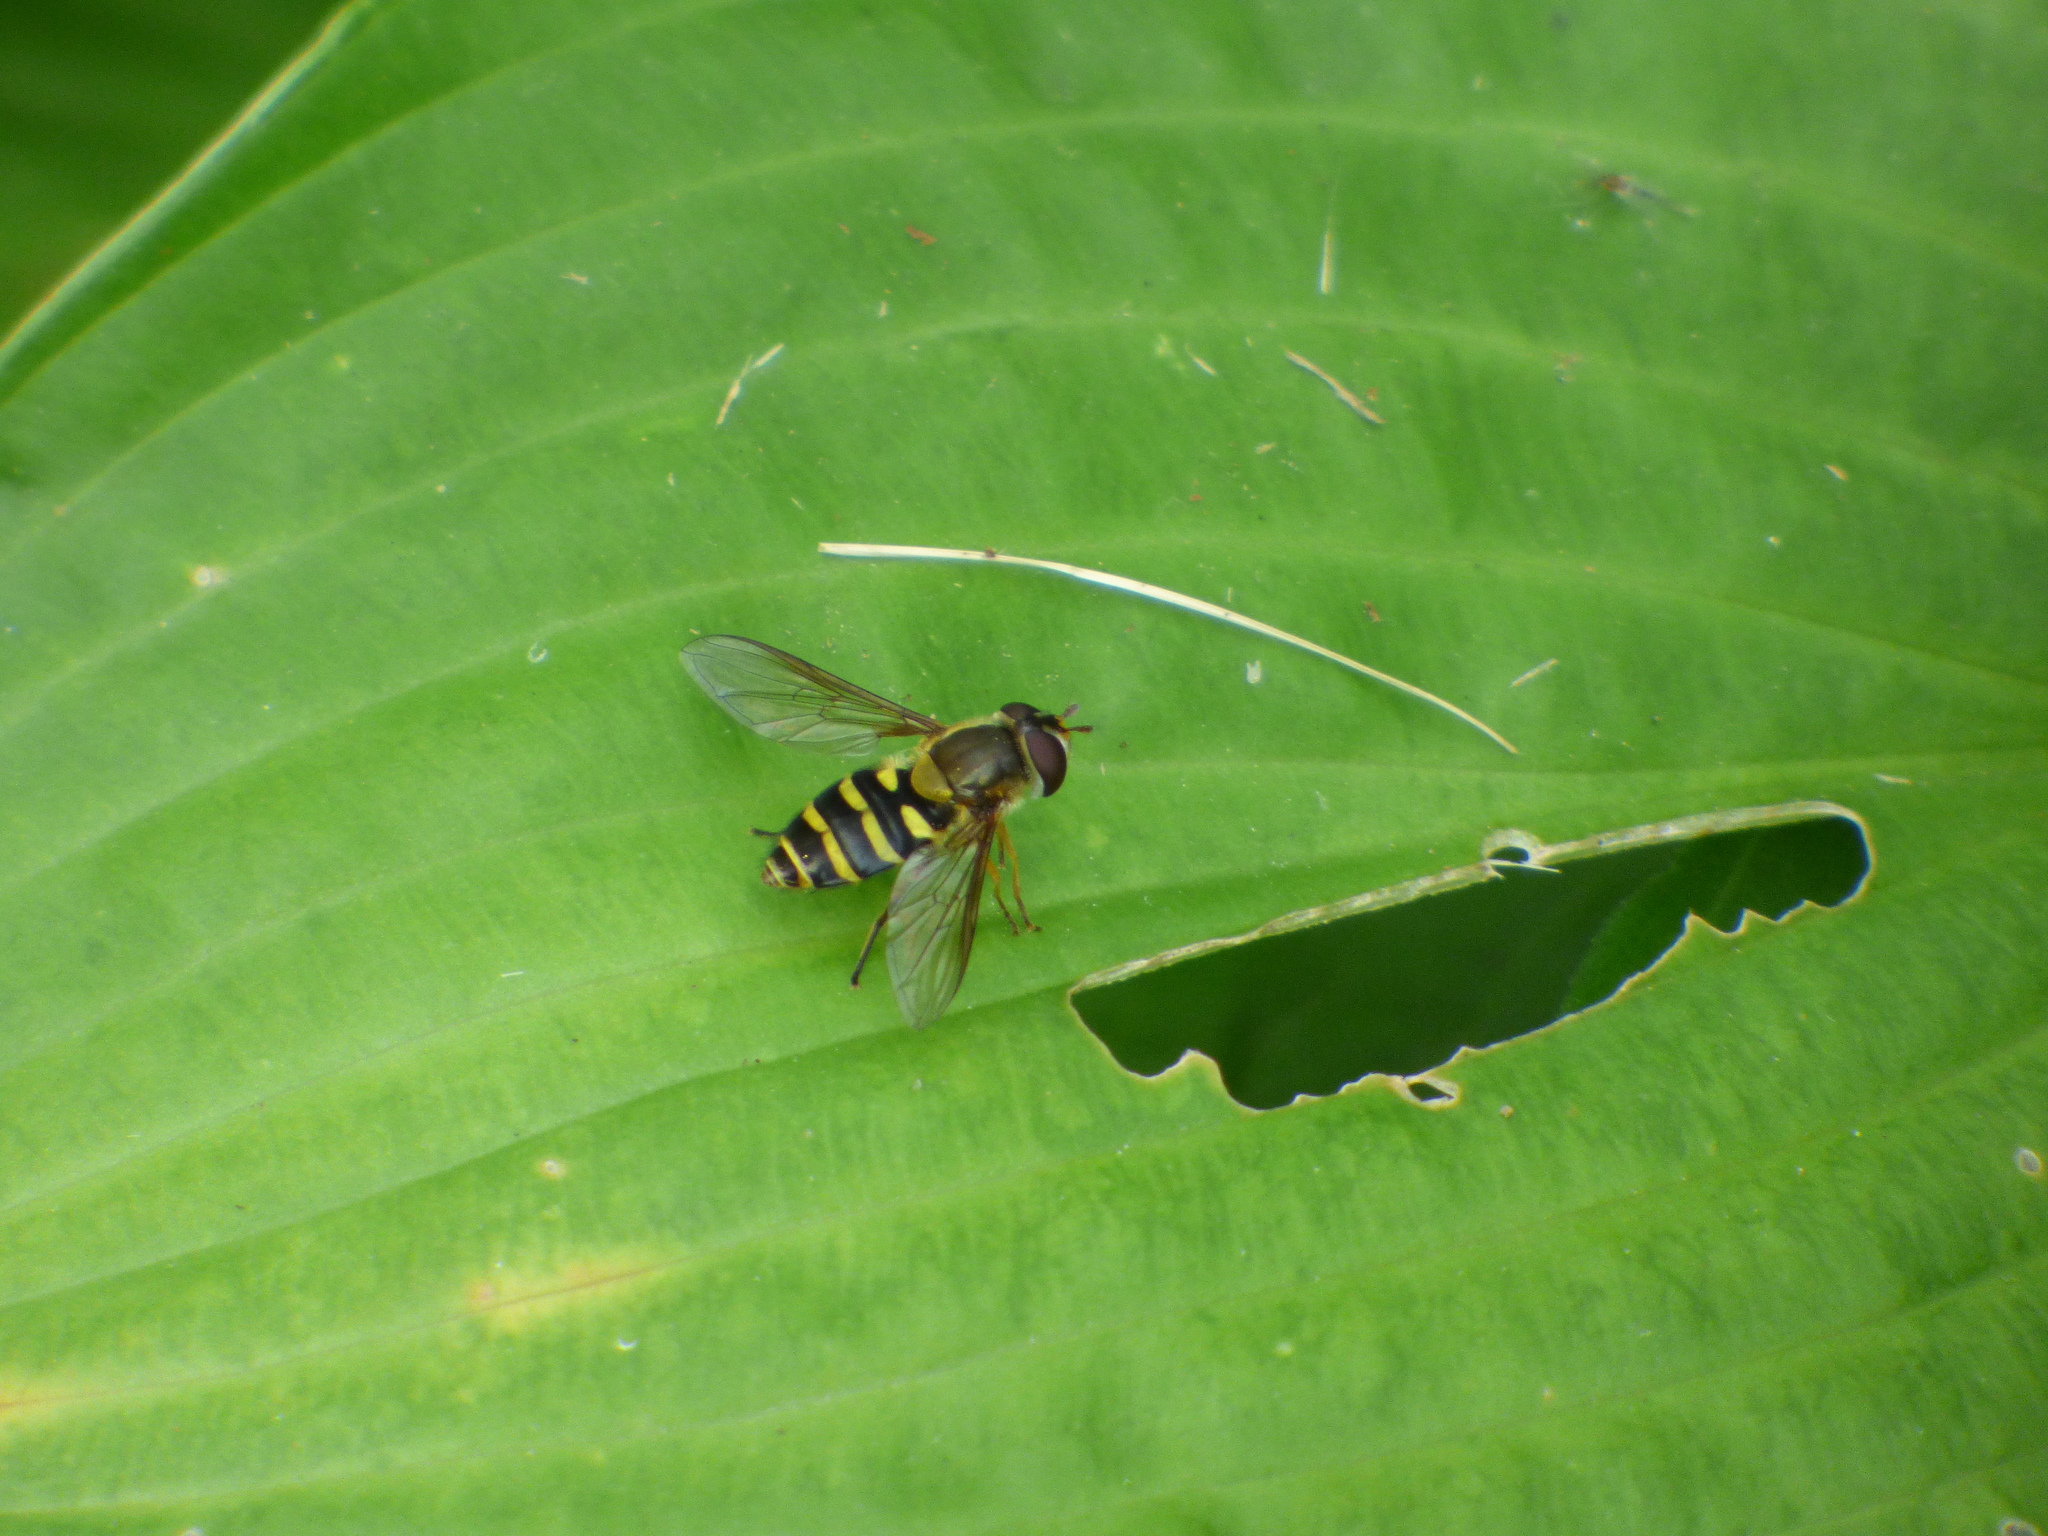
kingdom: Animalia
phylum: Arthropoda
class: Insecta
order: Diptera
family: Syrphidae
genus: Syrphus
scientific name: Syrphus
